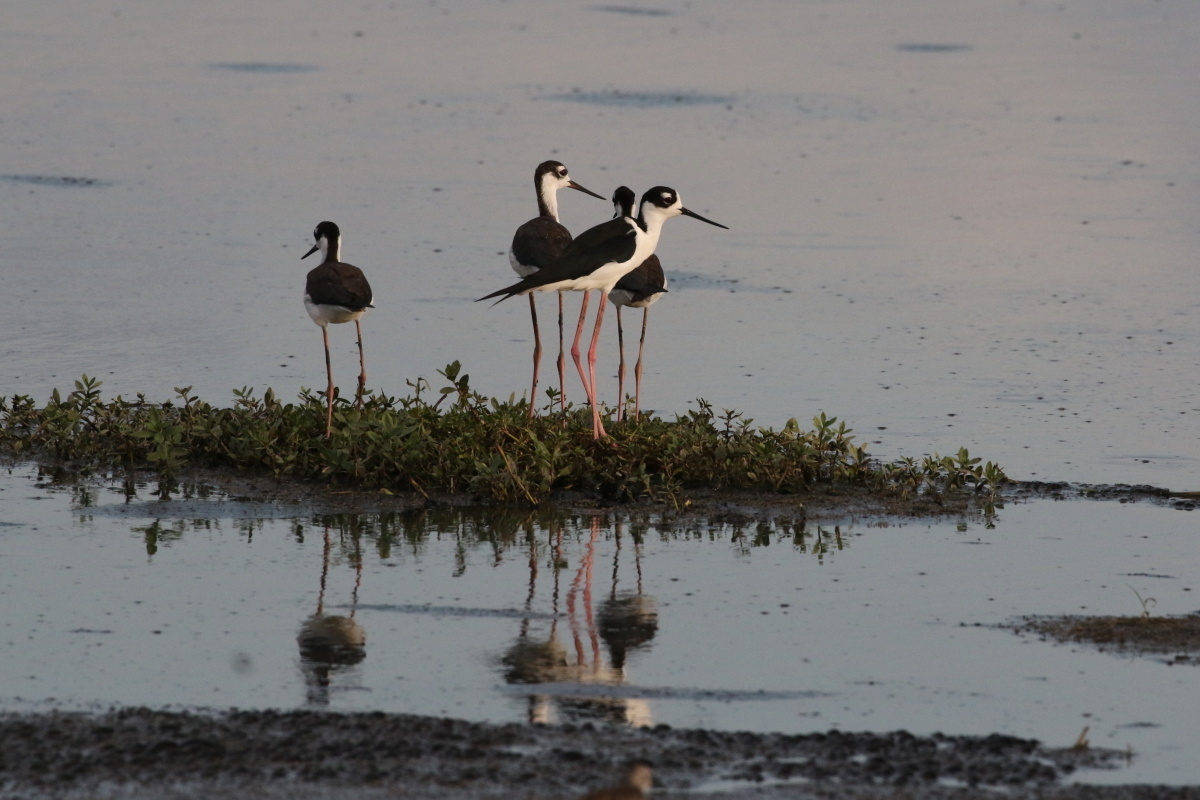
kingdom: Animalia
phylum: Chordata
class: Aves
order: Charadriiformes
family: Recurvirostridae
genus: Himantopus
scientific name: Himantopus mexicanus
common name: Black-necked stilt
